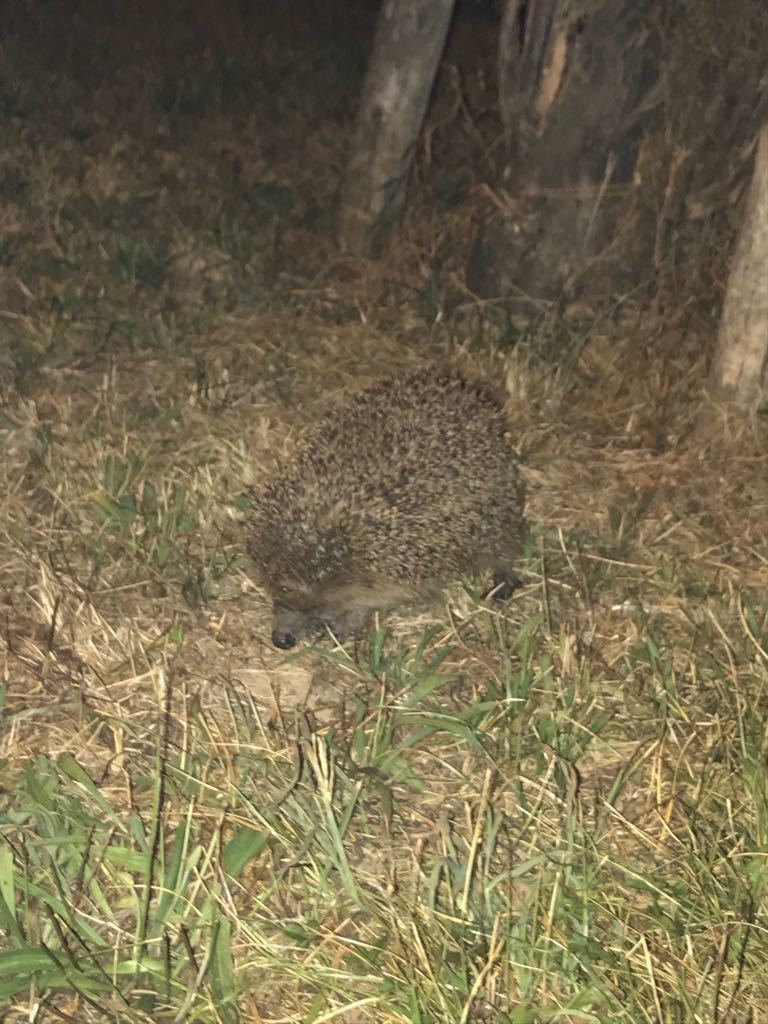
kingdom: Animalia
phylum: Chordata
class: Mammalia
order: Erinaceomorpha
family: Erinaceidae
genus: Erinaceus
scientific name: Erinaceus europaeus
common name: West european hedgehog
